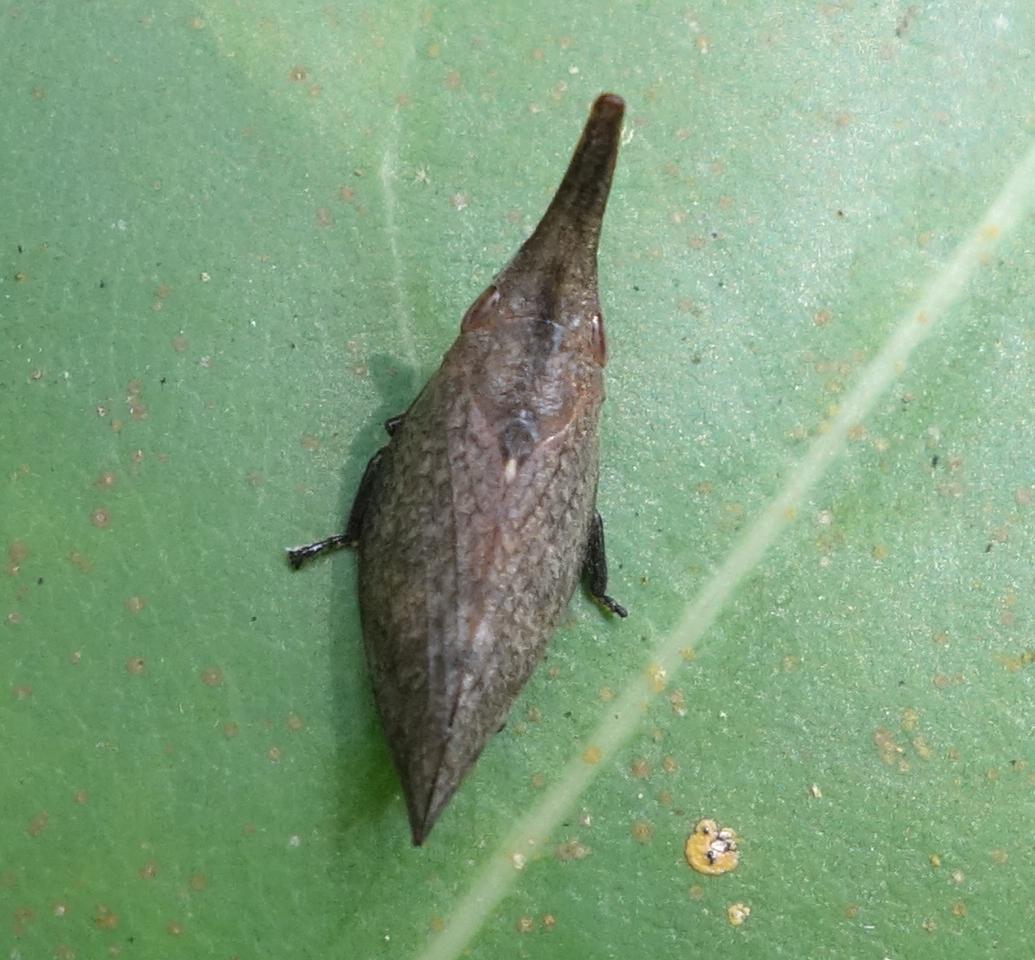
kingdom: Animalia
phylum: Arthropoda
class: Insecta
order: Hemiptera
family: Aphrophoridae
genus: Philagra
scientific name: Philagra subrecta
